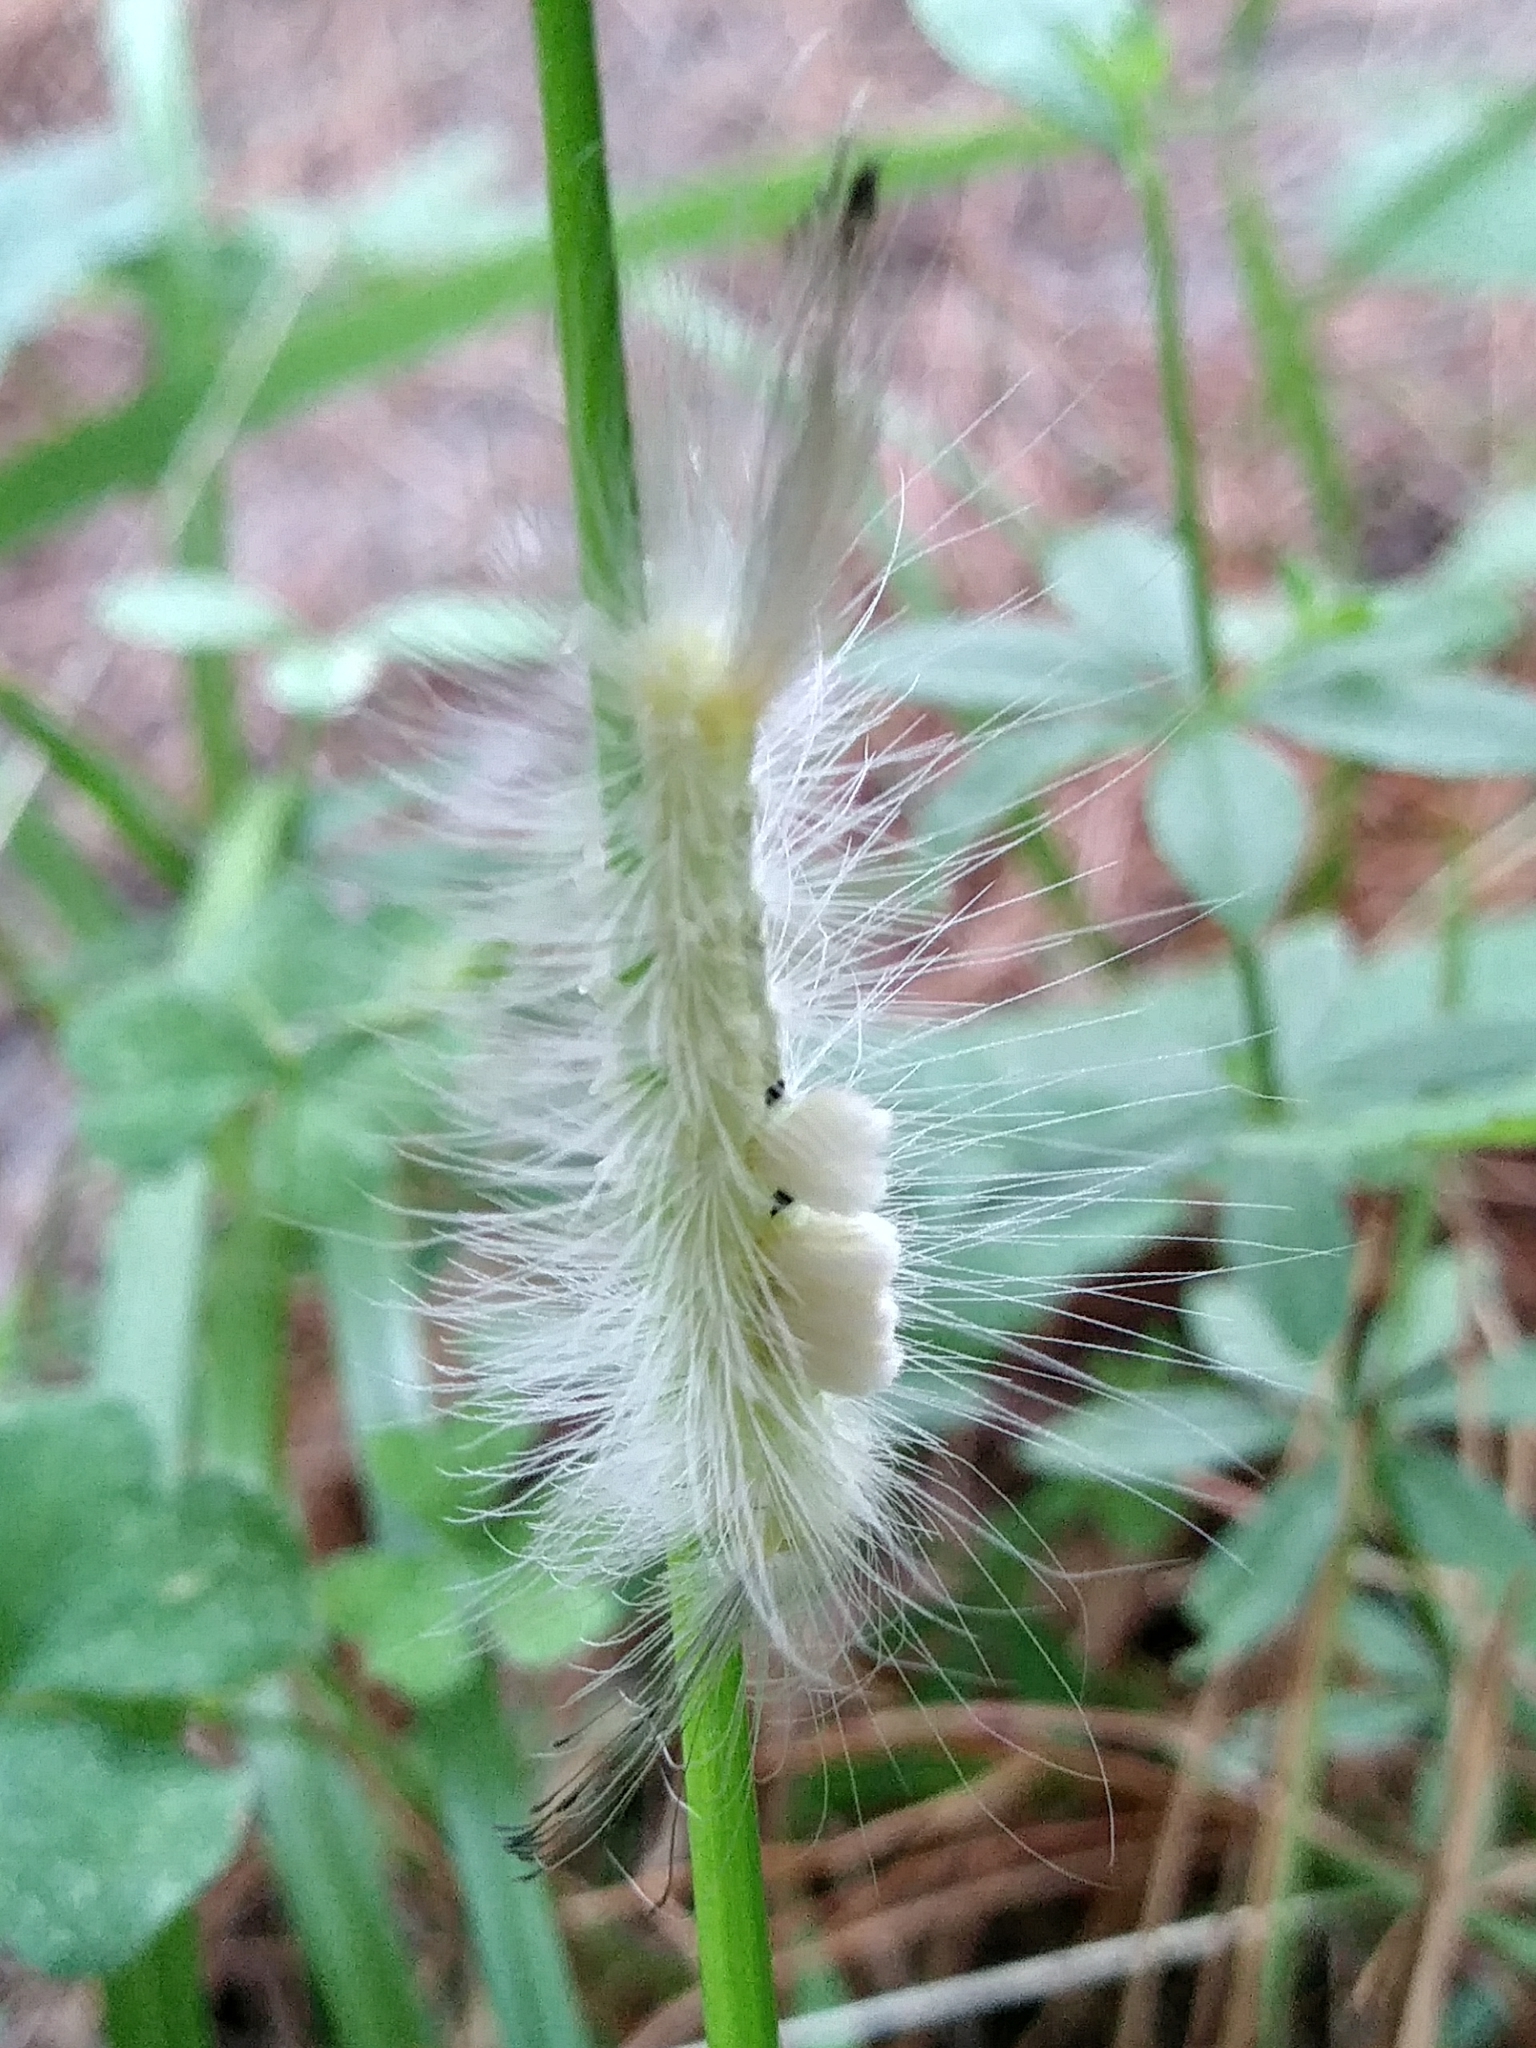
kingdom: Animalia
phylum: Arthropoda
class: Insecta
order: Lepidoptera
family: Erebidae
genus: Orgyia
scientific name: Orgyia definita
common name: Definite tussock moth
